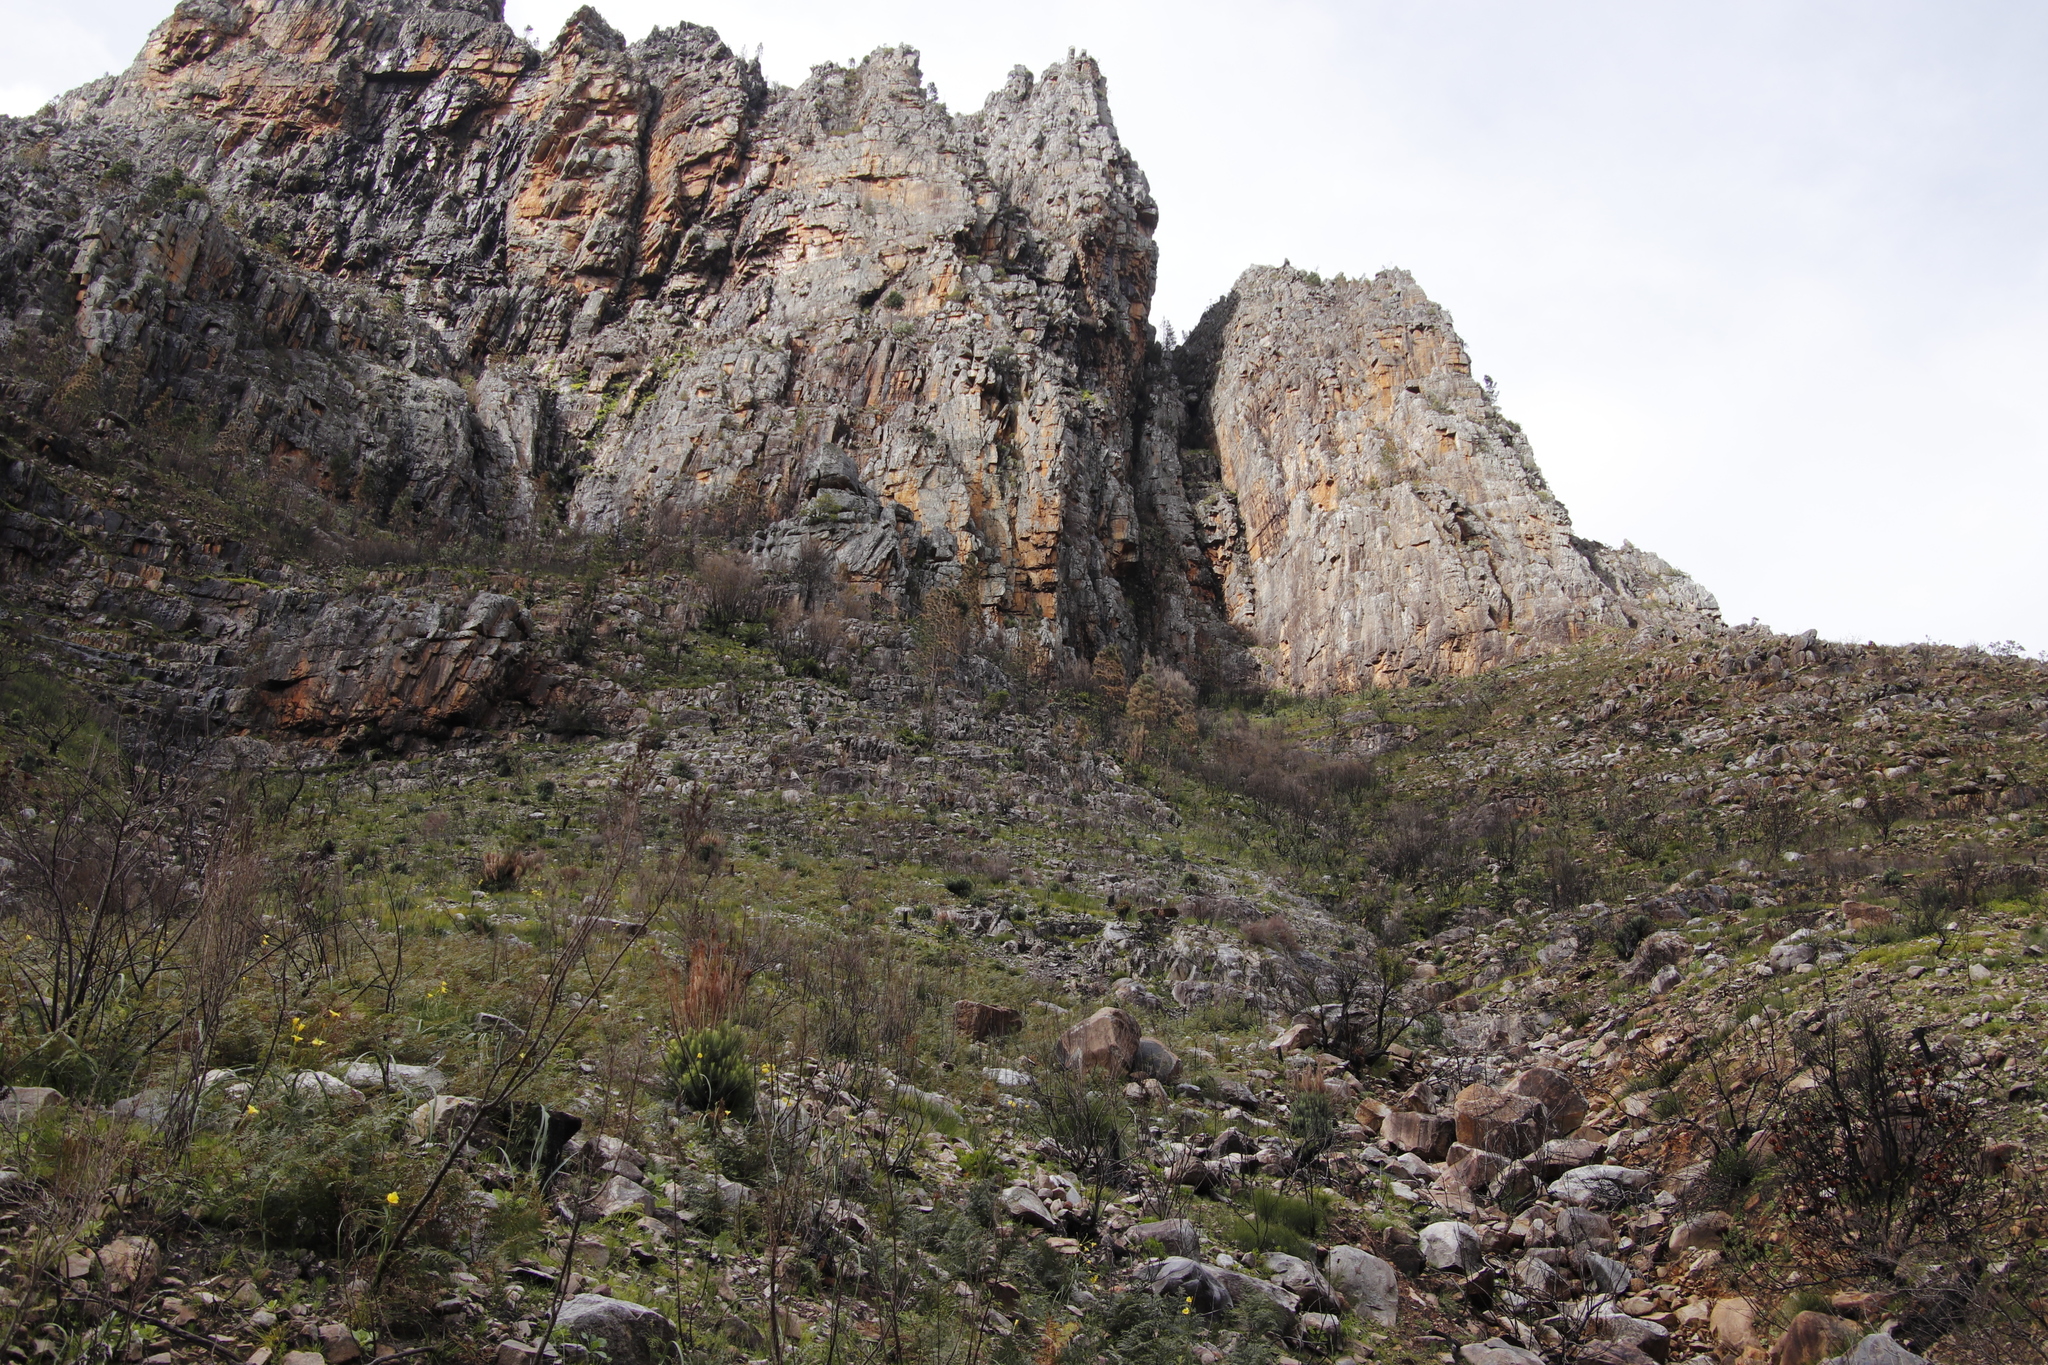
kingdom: Plantae
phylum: Tracheophyta
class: Pinopsida
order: Pinales
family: Pinaceae
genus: Pinus
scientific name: Pinus canariensis
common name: Canary islands pine
